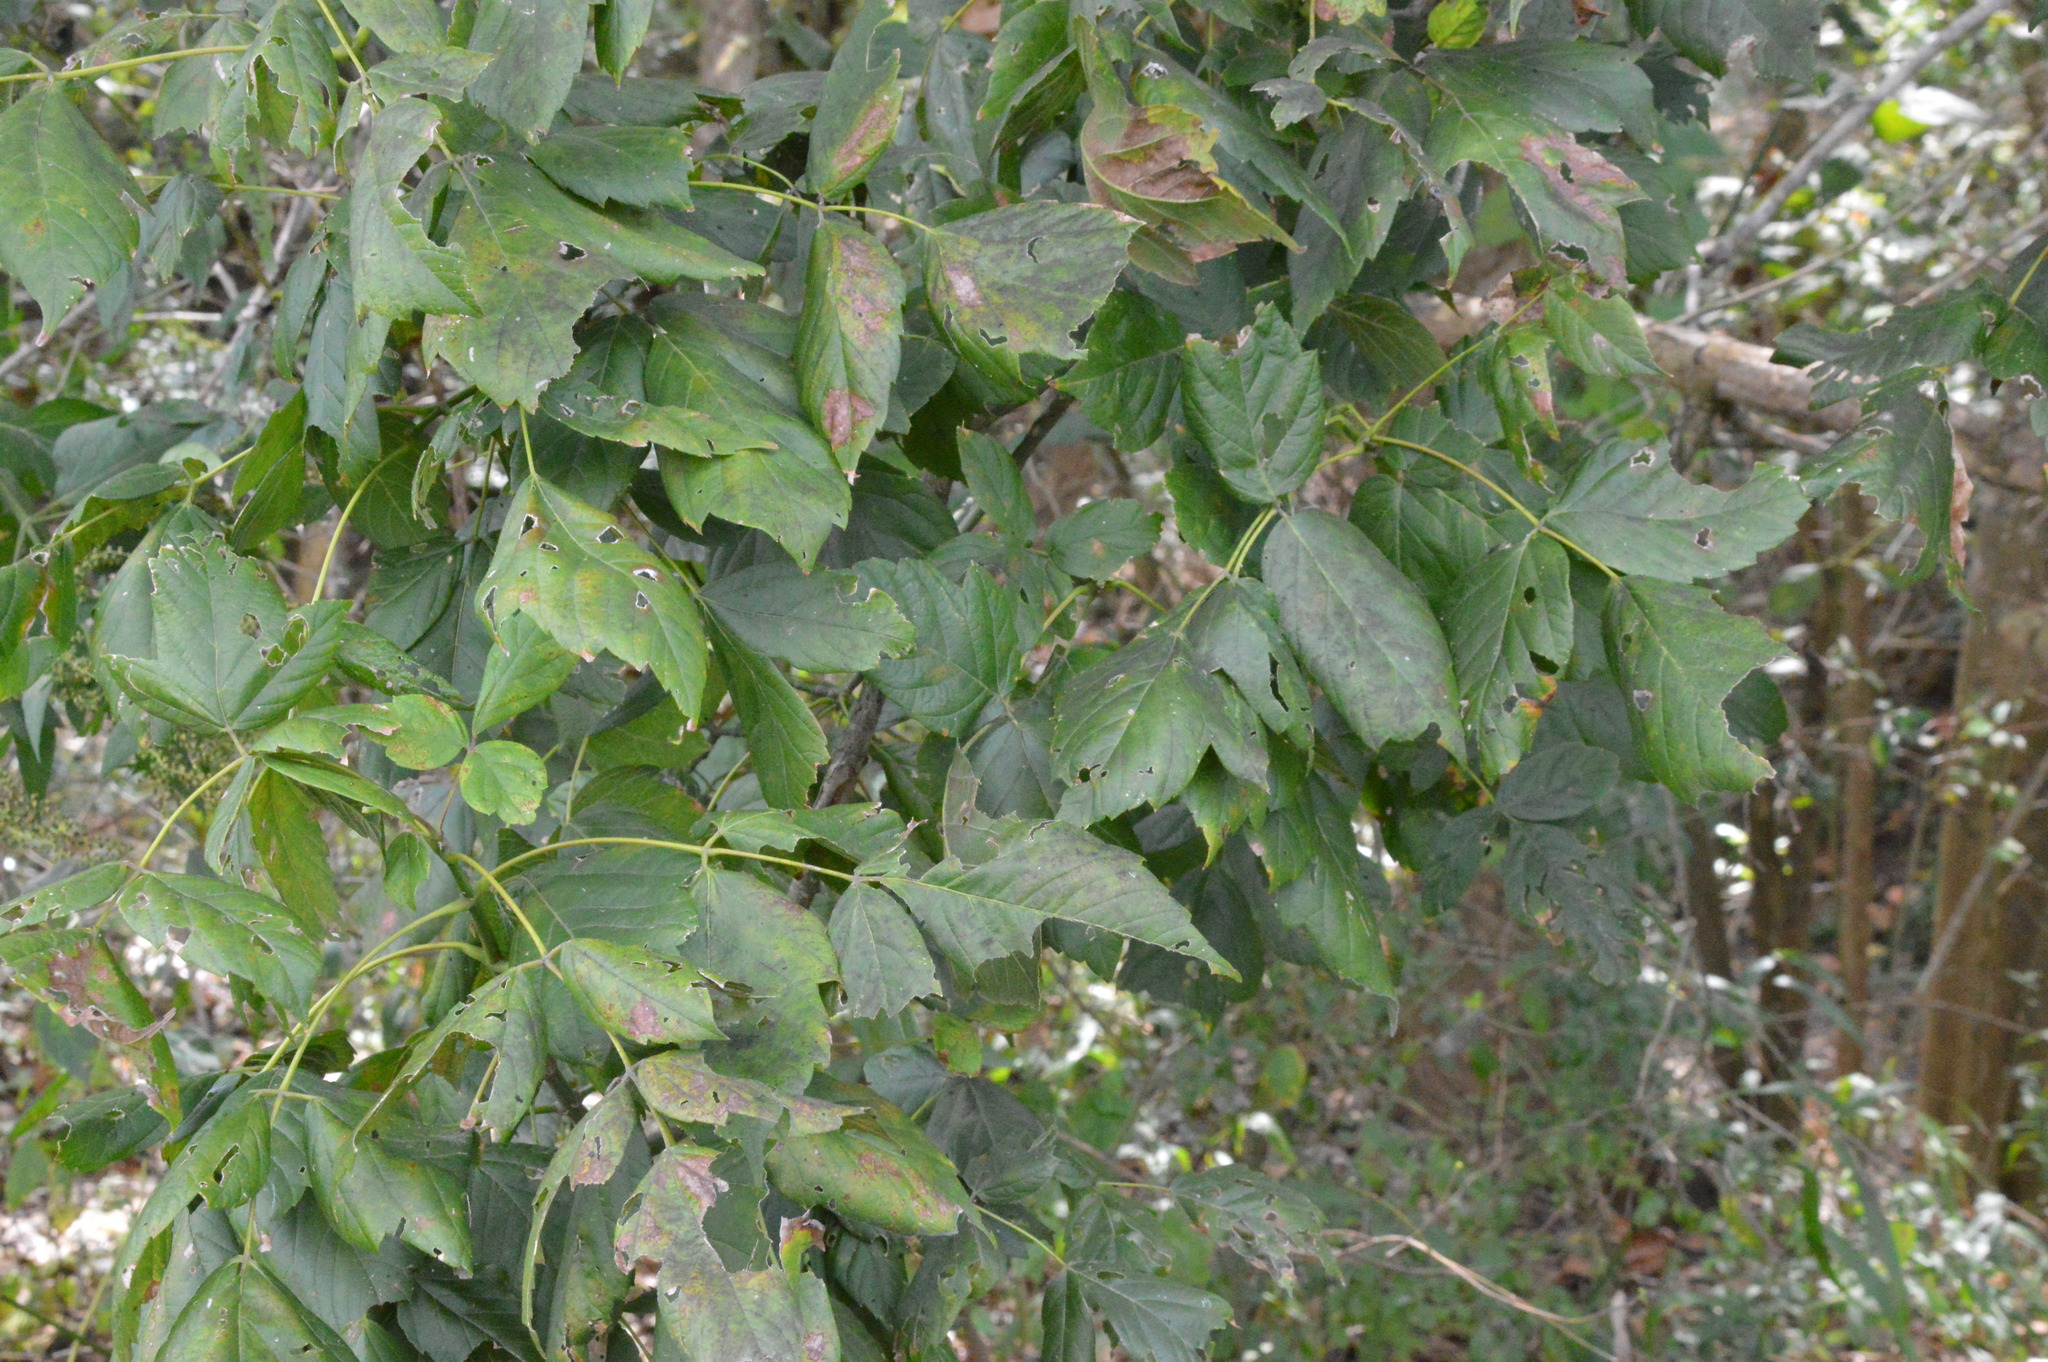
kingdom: Plantae
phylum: Tracheophyta
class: Magnoliopsida
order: Sapindales
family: Sapindaceae
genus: Acer
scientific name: Acer negundo
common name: Ashleaf maple
